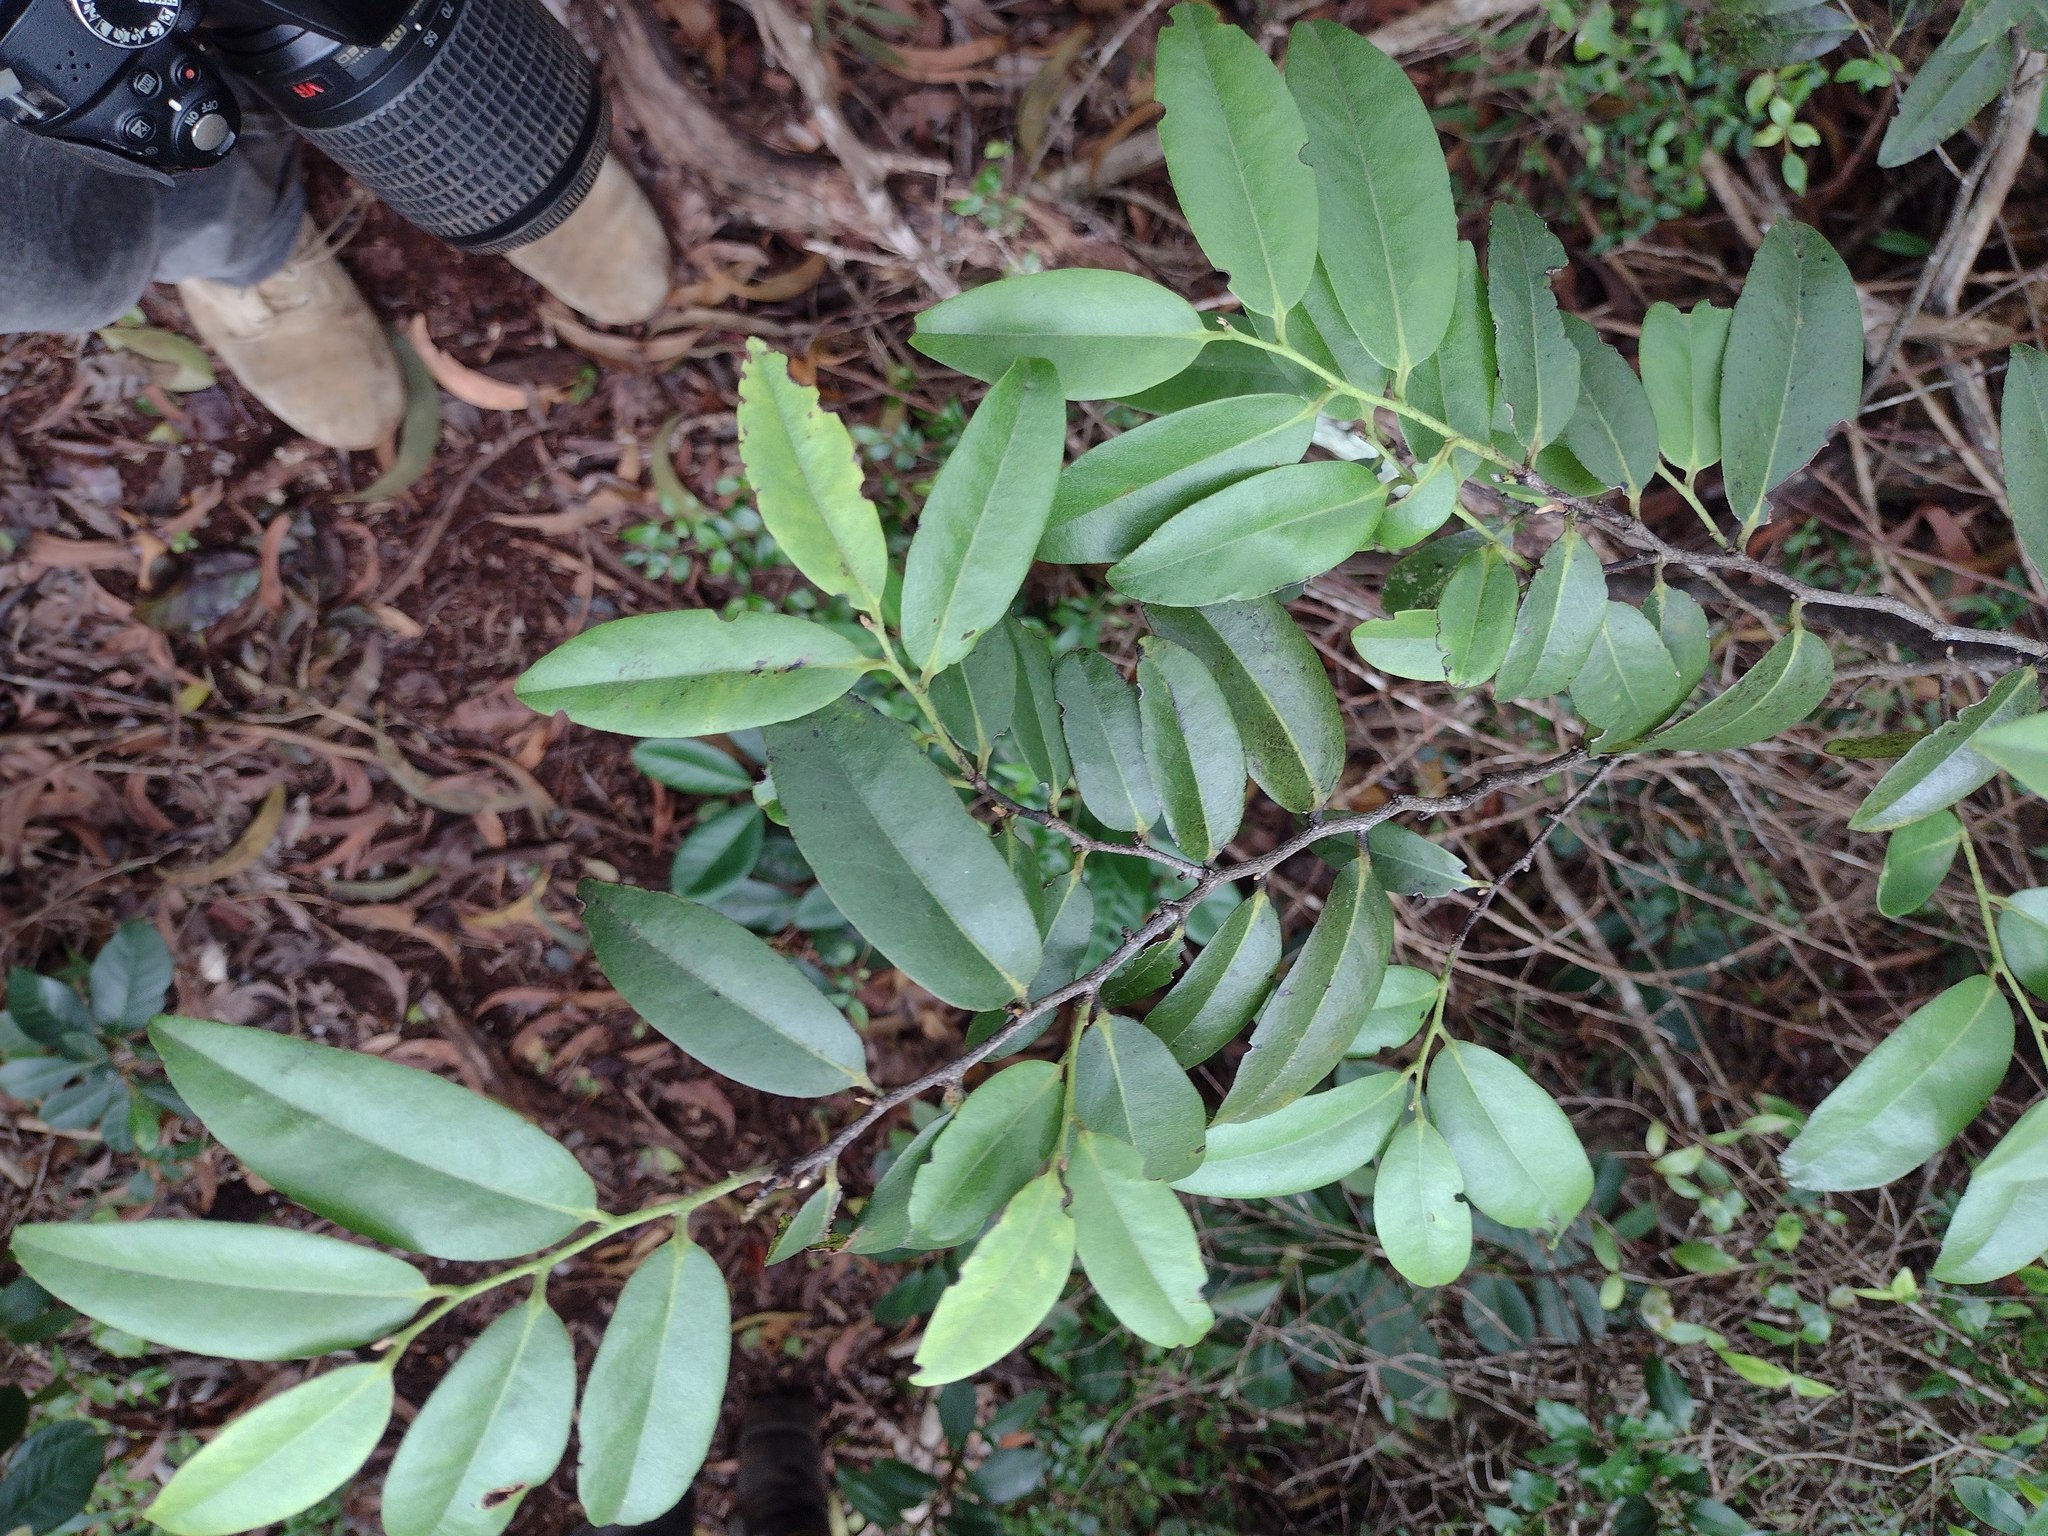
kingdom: Plantae
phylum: Tracheophyta
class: Magnoliopsida
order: Ericales
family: Ebenaceae
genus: Diospyros
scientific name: Diospyros sandwicensis
